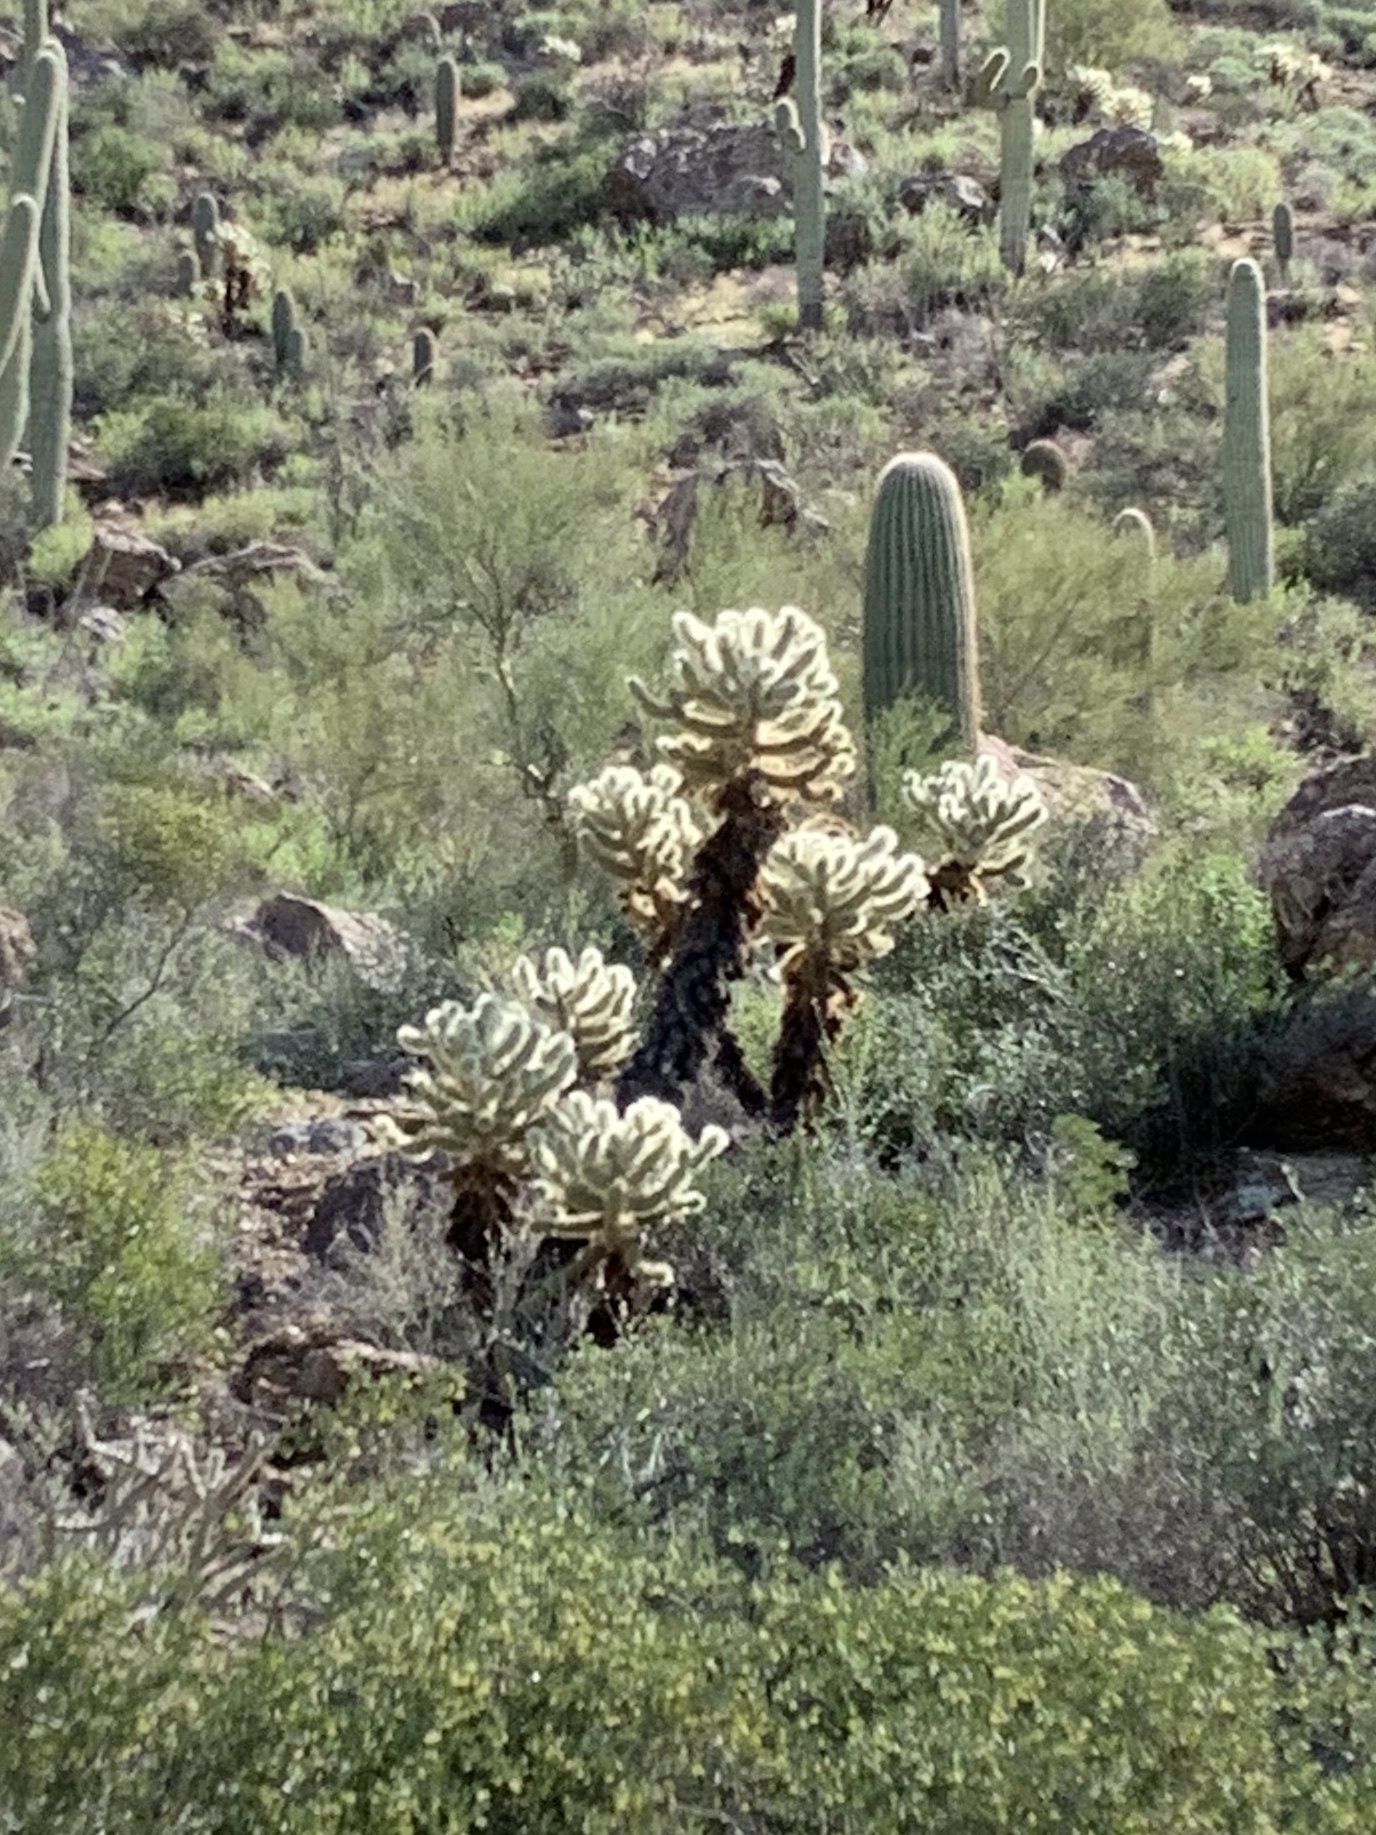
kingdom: Plantae
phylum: Tracheophyta
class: Magnoliopsida
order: Caryophyllales
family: Cactaceae
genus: Cylindropuntia
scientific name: Cylindropuntia fosbergii
